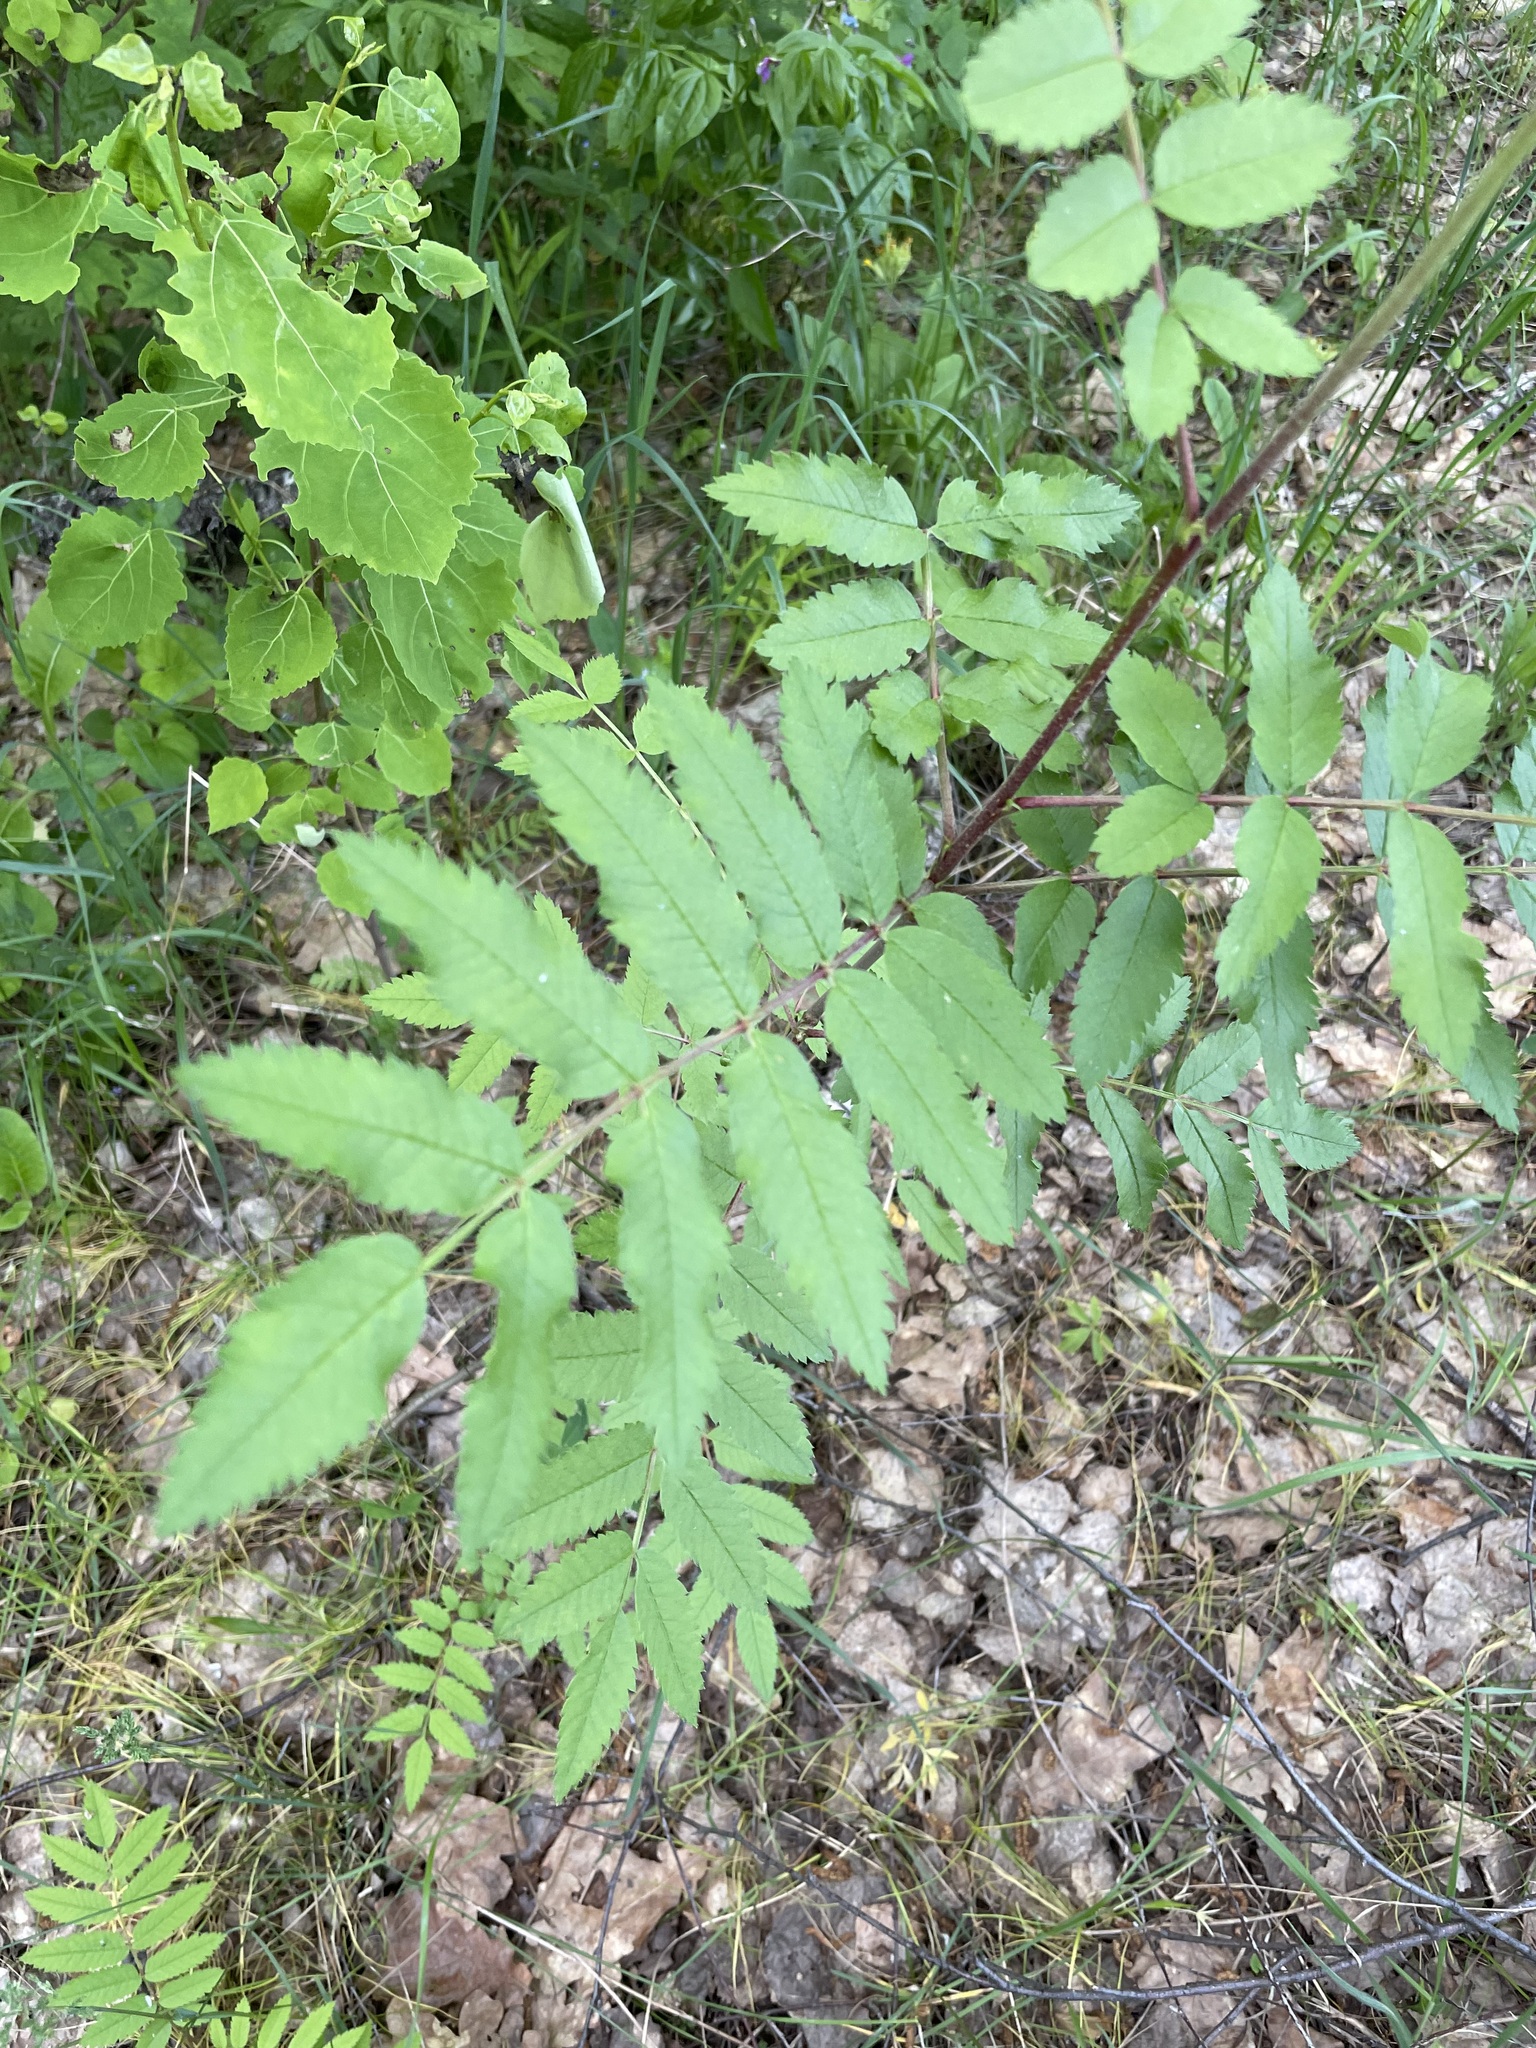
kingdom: Plantae
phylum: Tracheophyta
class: Magnoliopsida
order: Rosales
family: Rosaceae
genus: Sorbus
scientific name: Sorbus aucuparia
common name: Rowan
